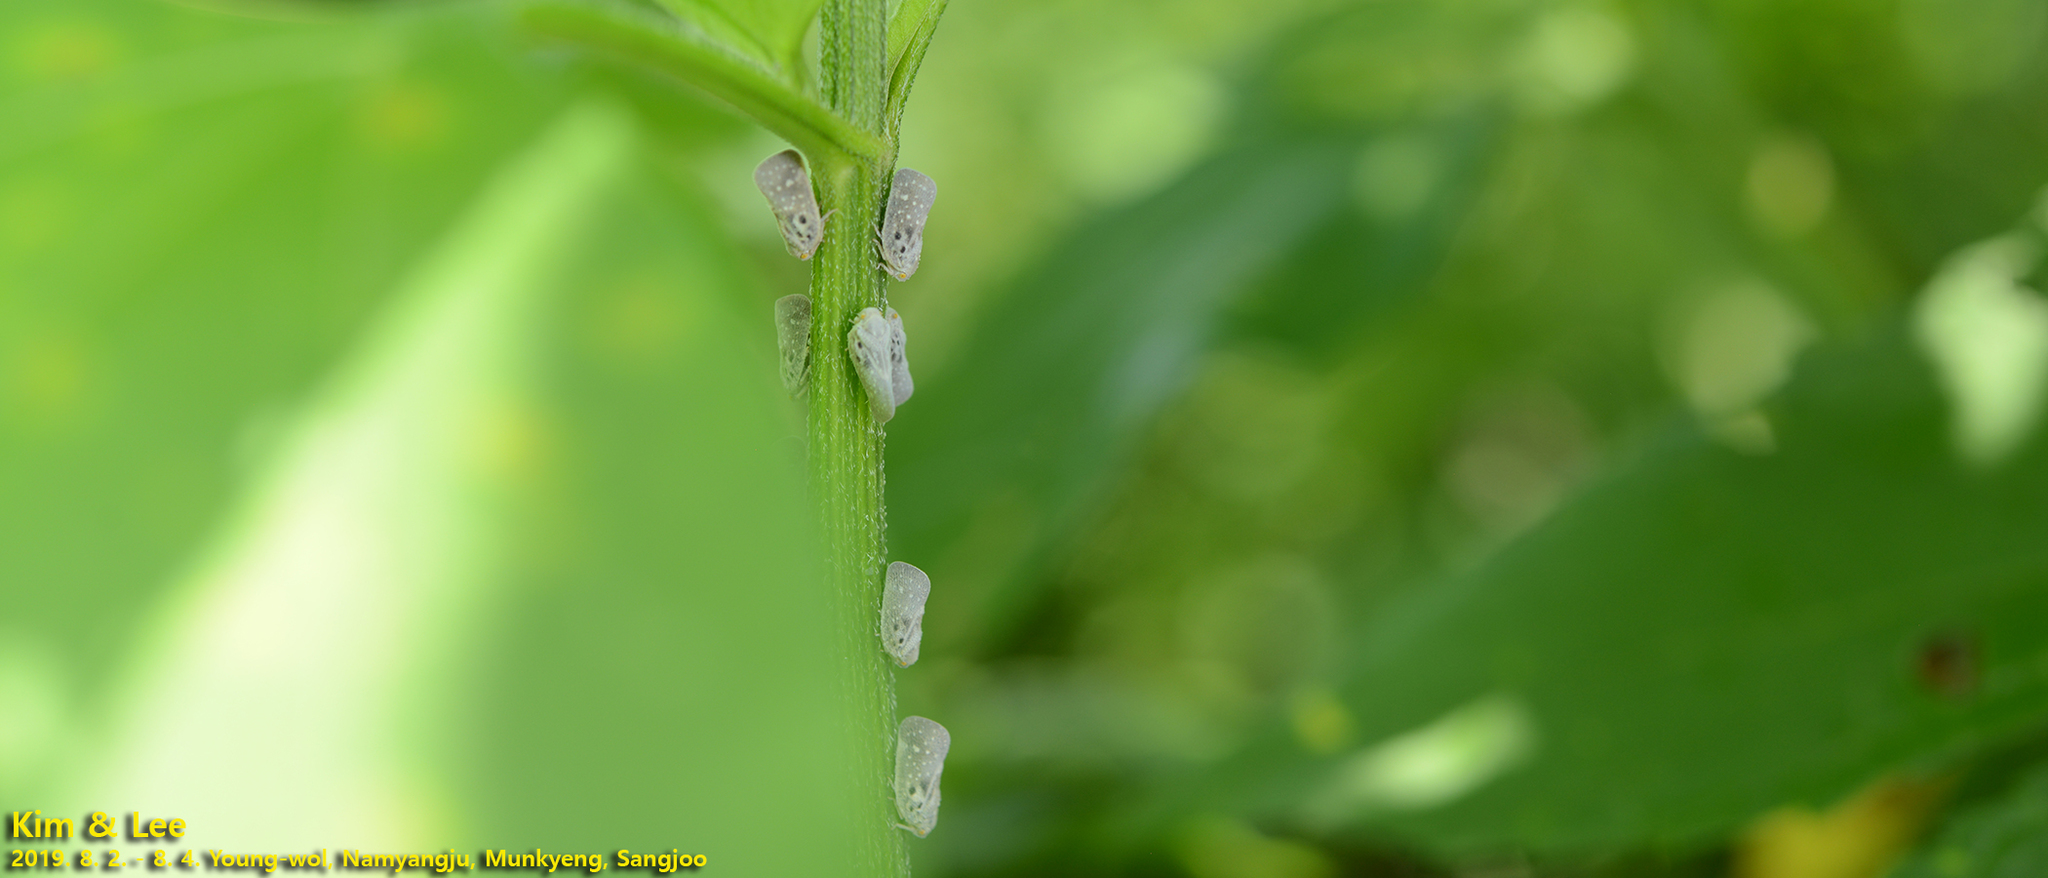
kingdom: Animalia
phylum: Arthropoda
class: Insecta
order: Hemiptera
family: Flatidae
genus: Metcalfa
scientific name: Metcalfa pruinosa
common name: Citrus flatid planthopper
